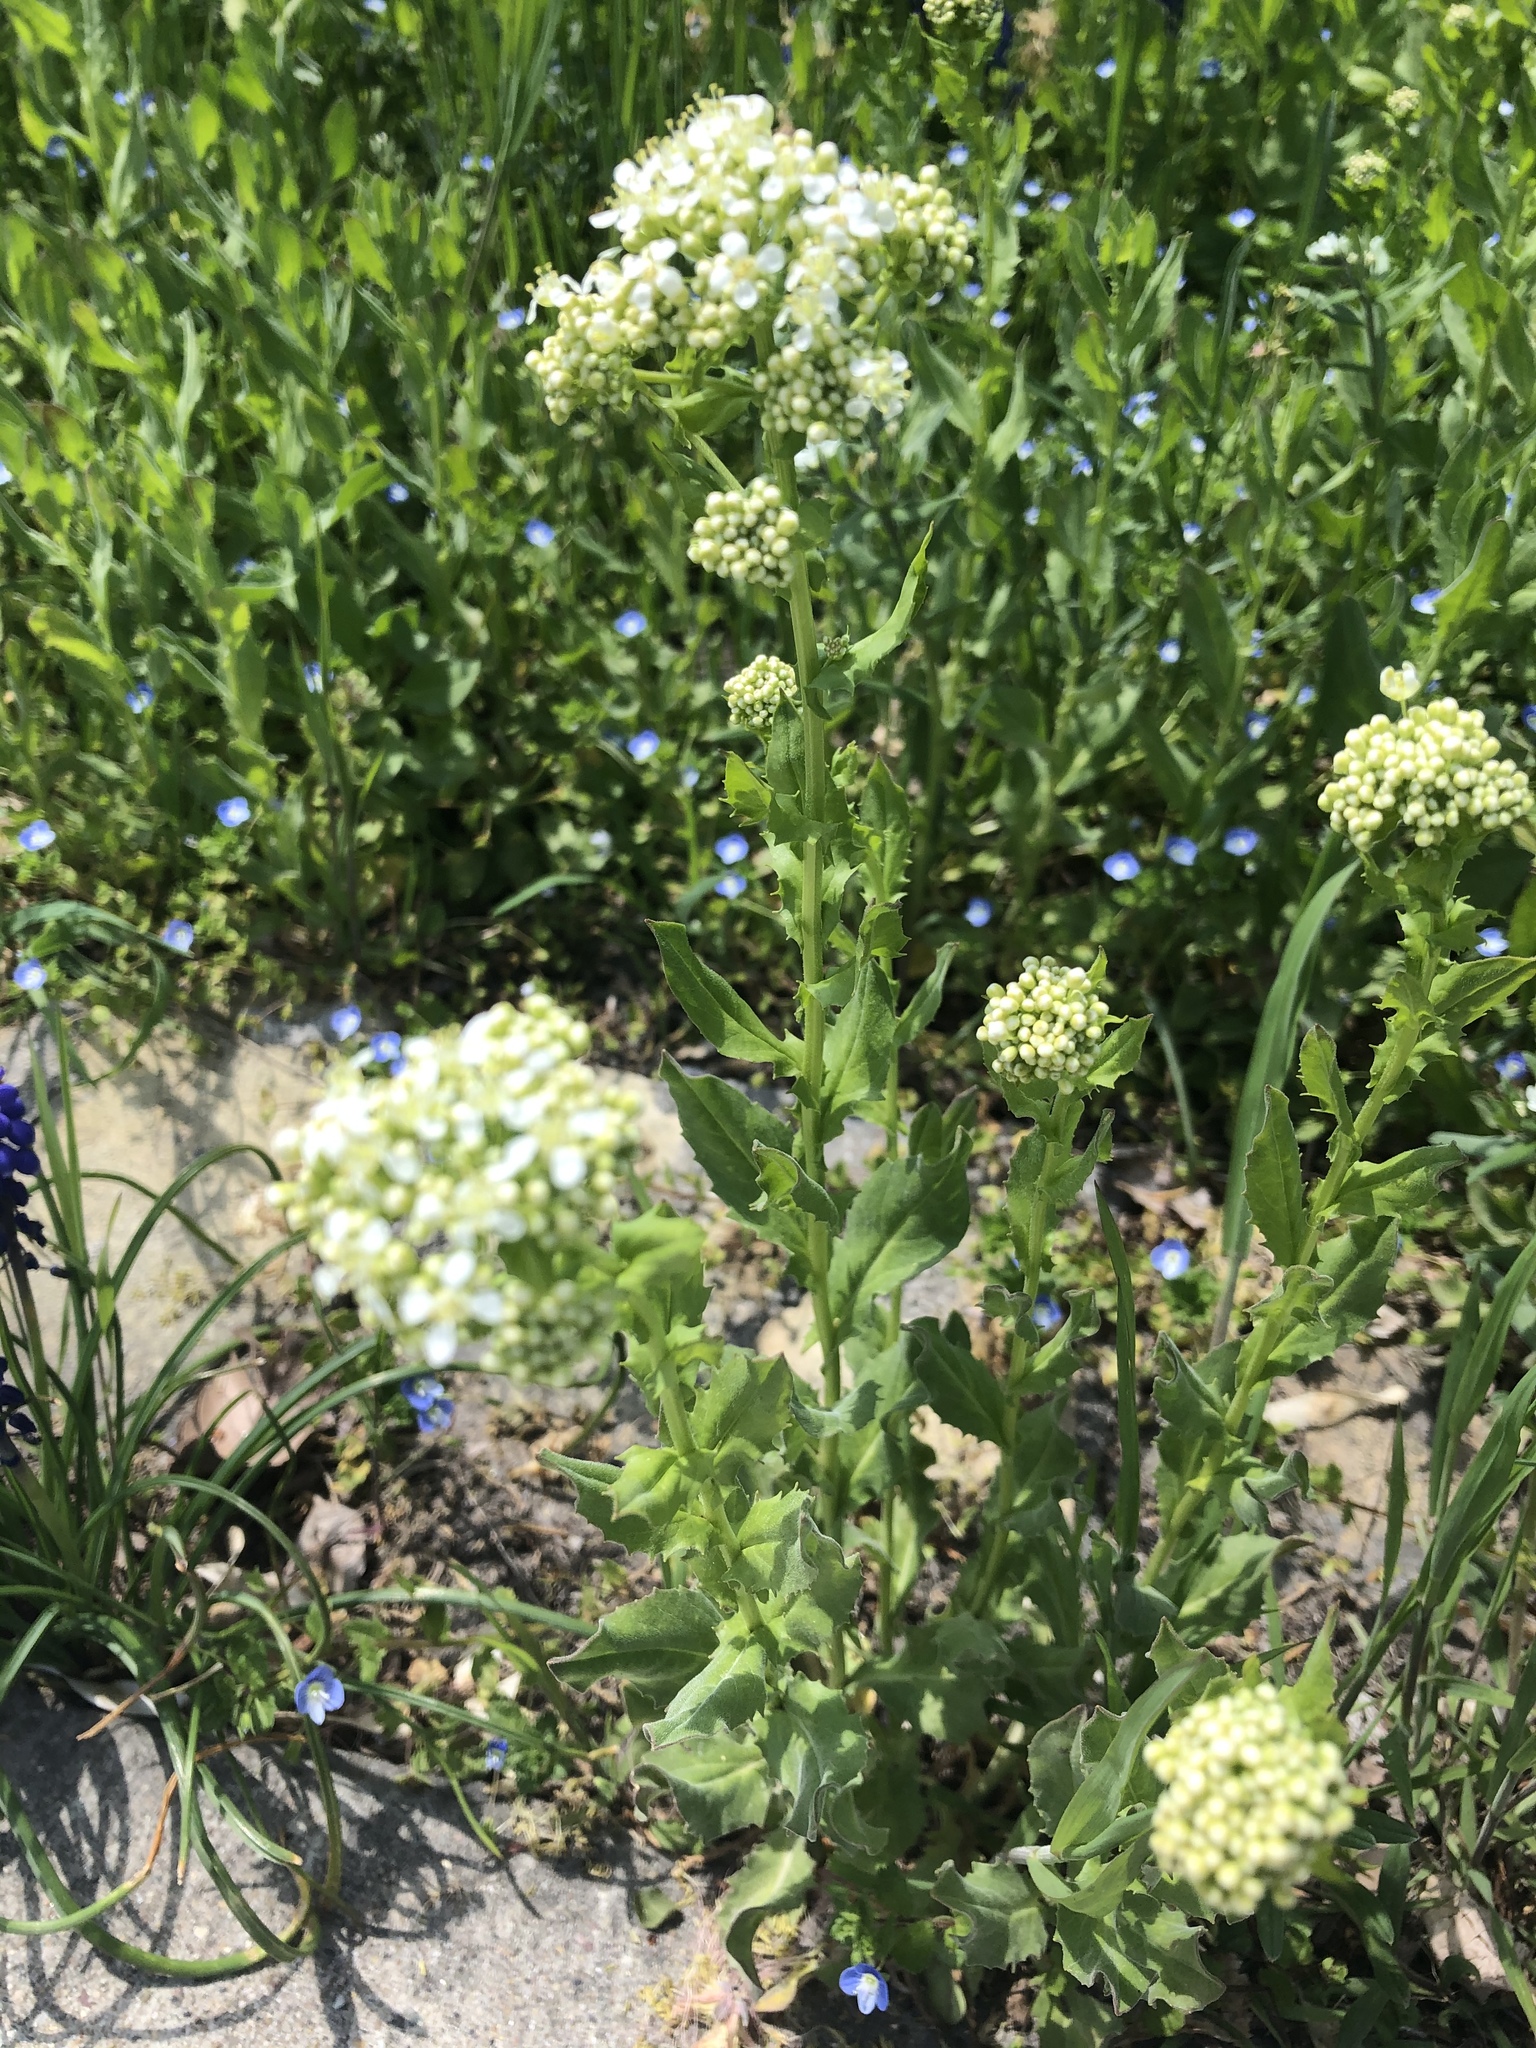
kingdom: Plantae
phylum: Tracheophyta
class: Magnoliopsida
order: Brassicales
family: Brassicaceae
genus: Lepidium
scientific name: Lepidium draba
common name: Hoary cress
